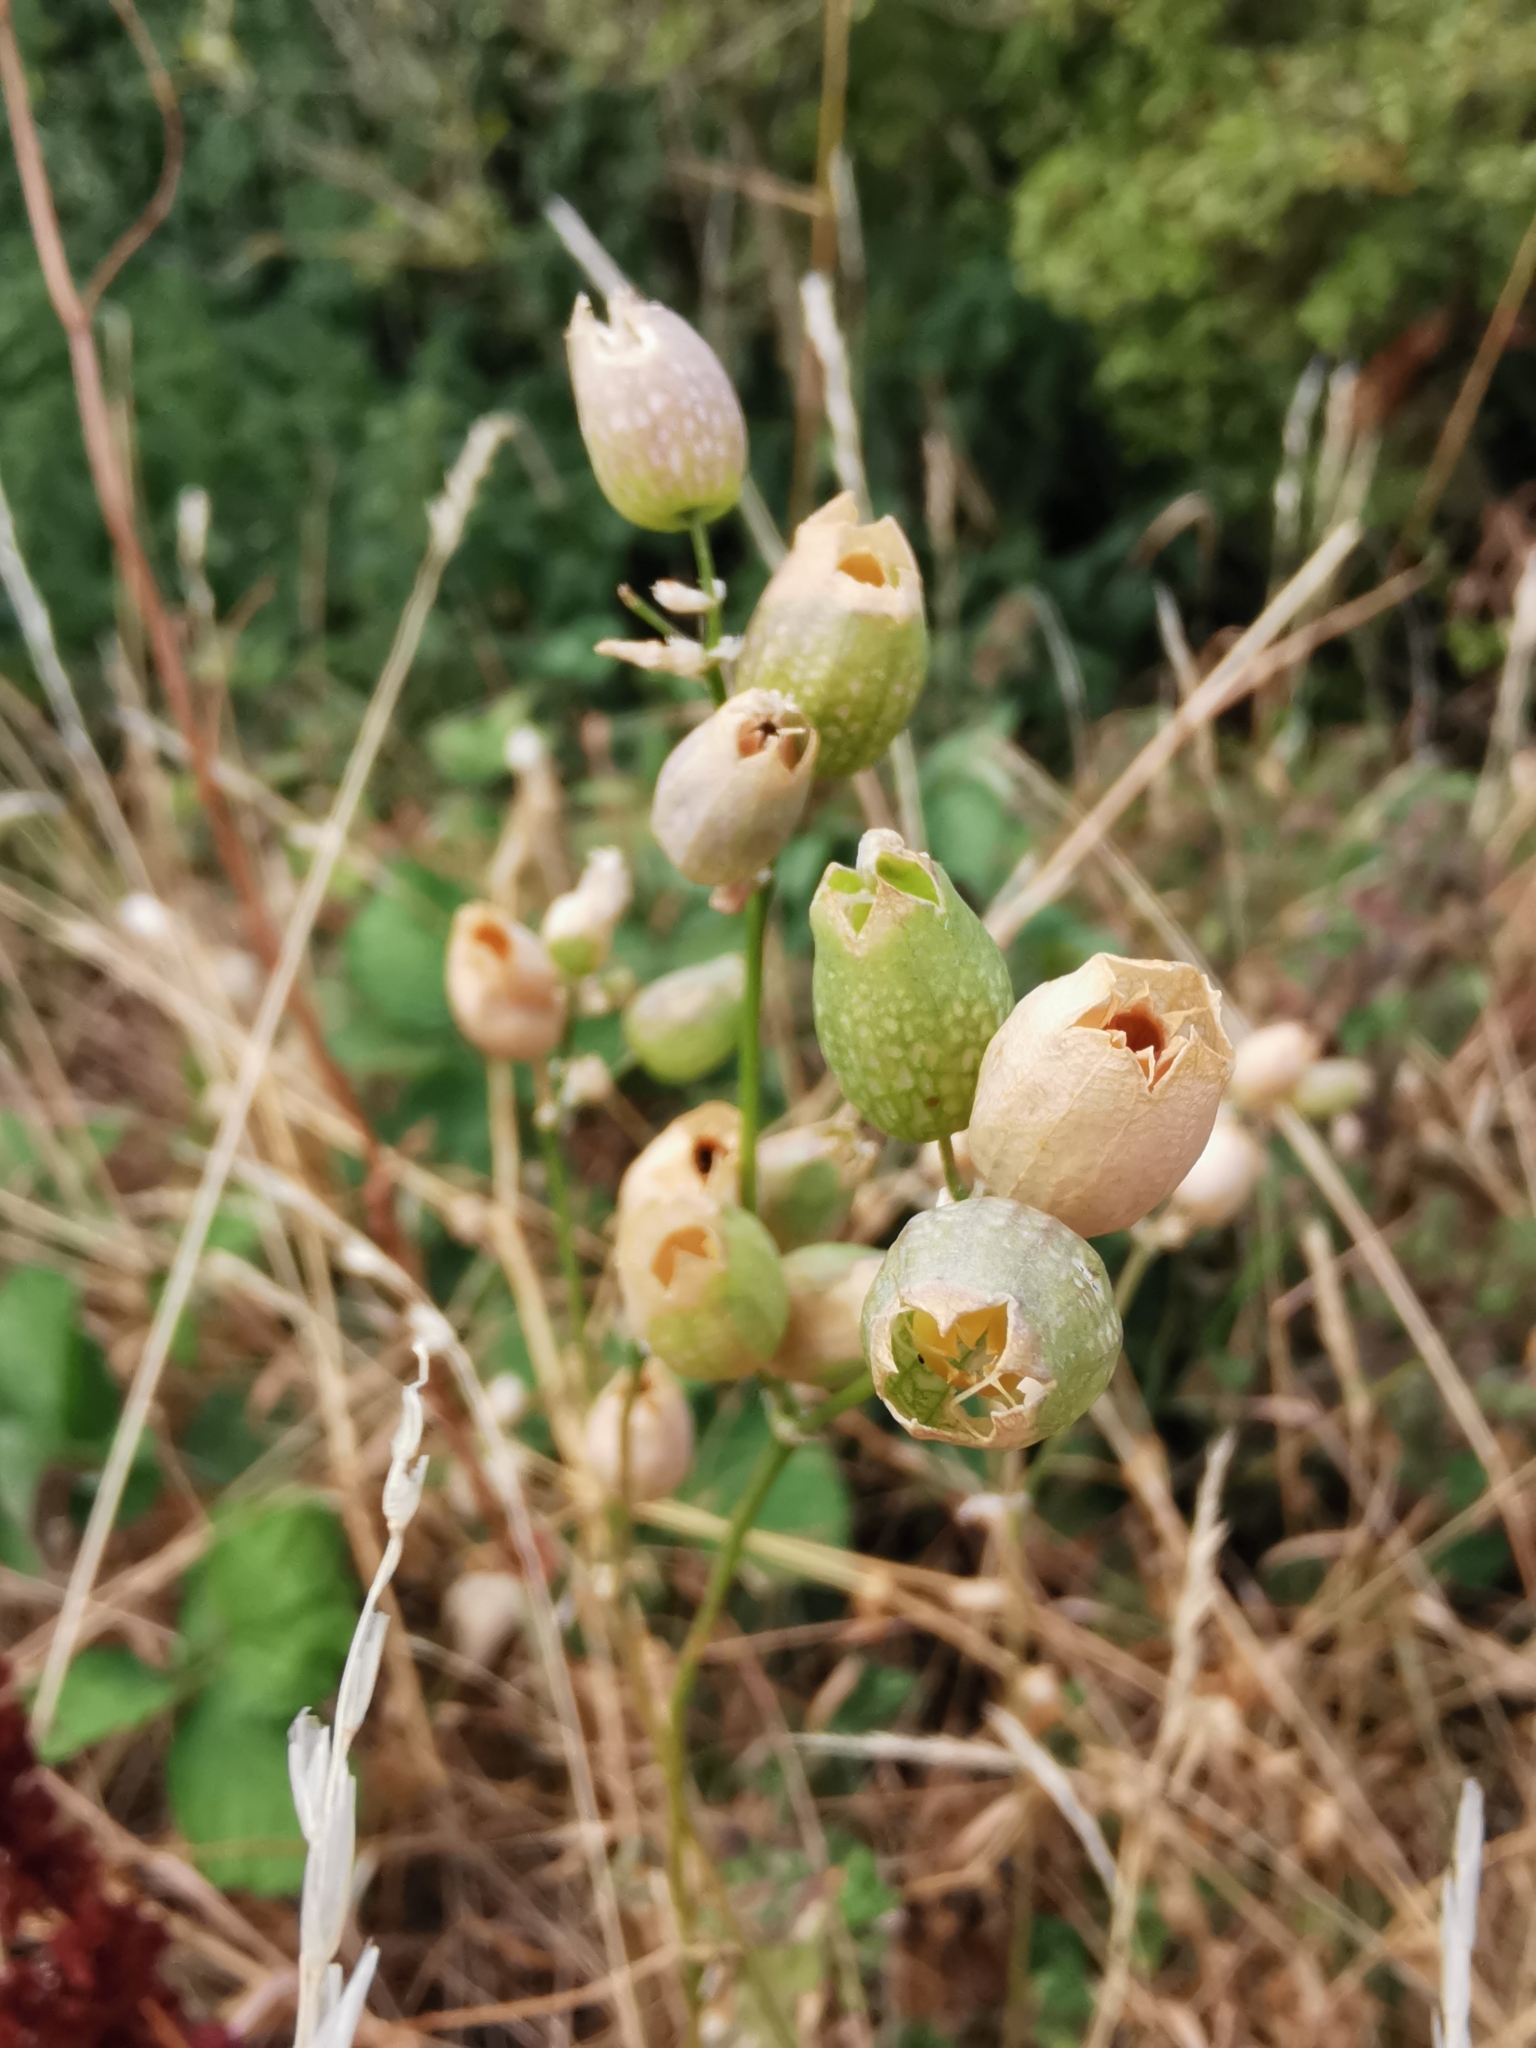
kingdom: Plantae
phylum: Tracheophyta
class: Magnoliopsida
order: Caryophyllales
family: Caryophyllaceae
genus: Silene
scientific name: Silene vulgaris
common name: Bladder campion
